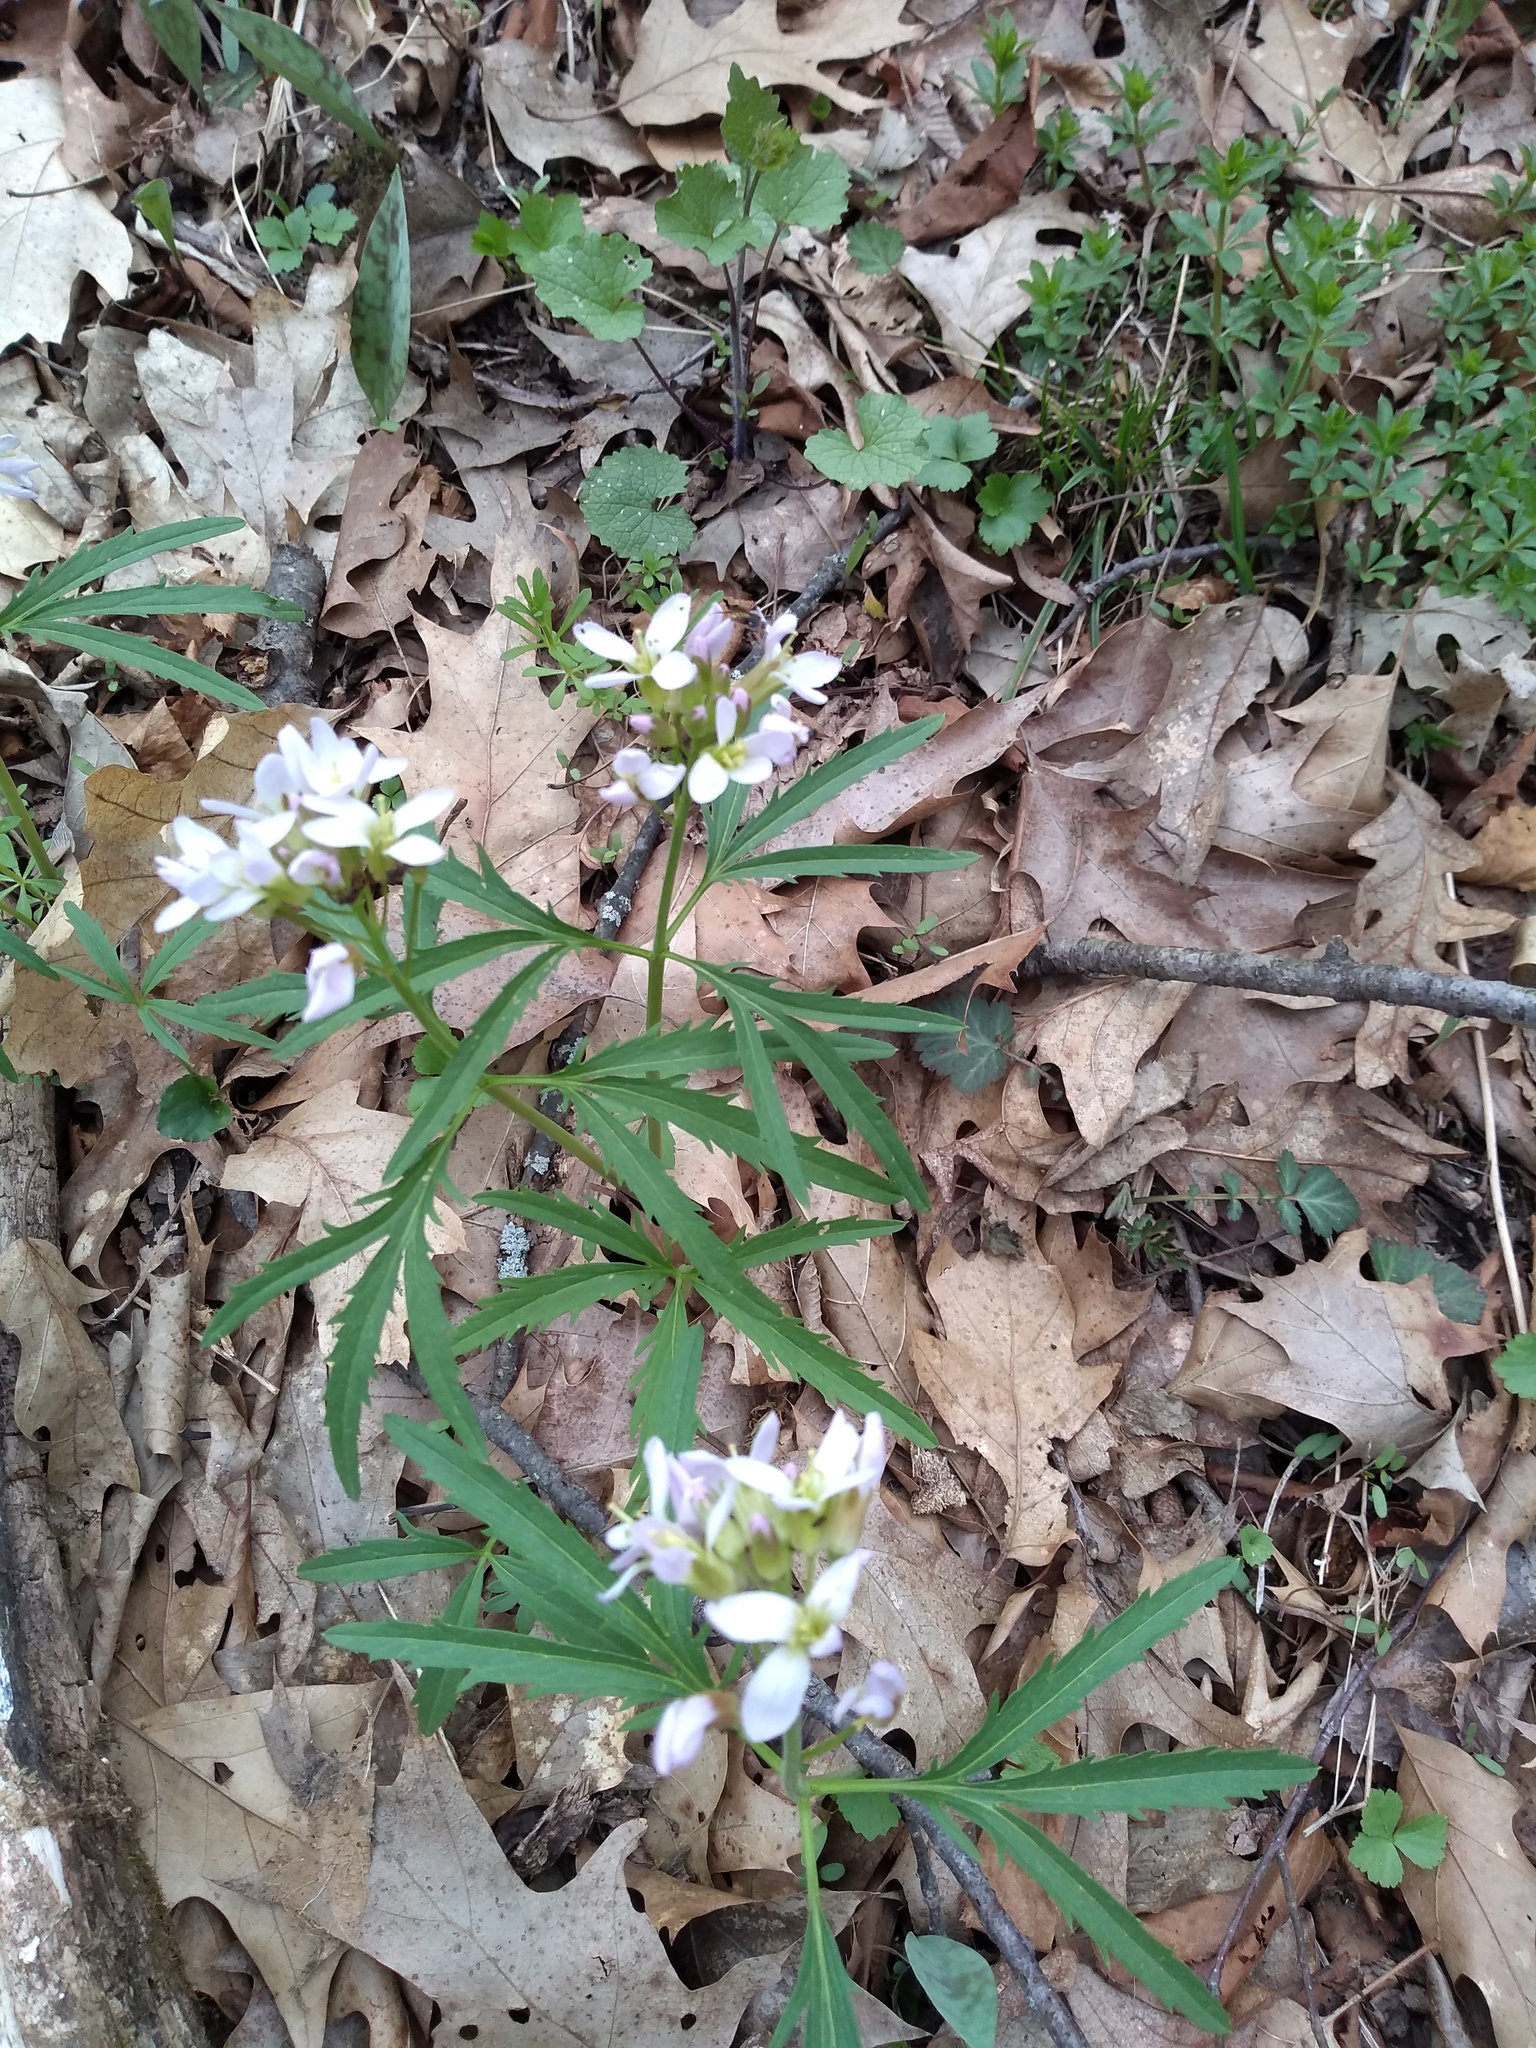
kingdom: Plantae
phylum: Tracheophyta
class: Magnoliopsida
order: Brassicales
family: Brassicaceae
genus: Cardamine
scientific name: Cardamine concatenata
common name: Cut-leaf toothcup
